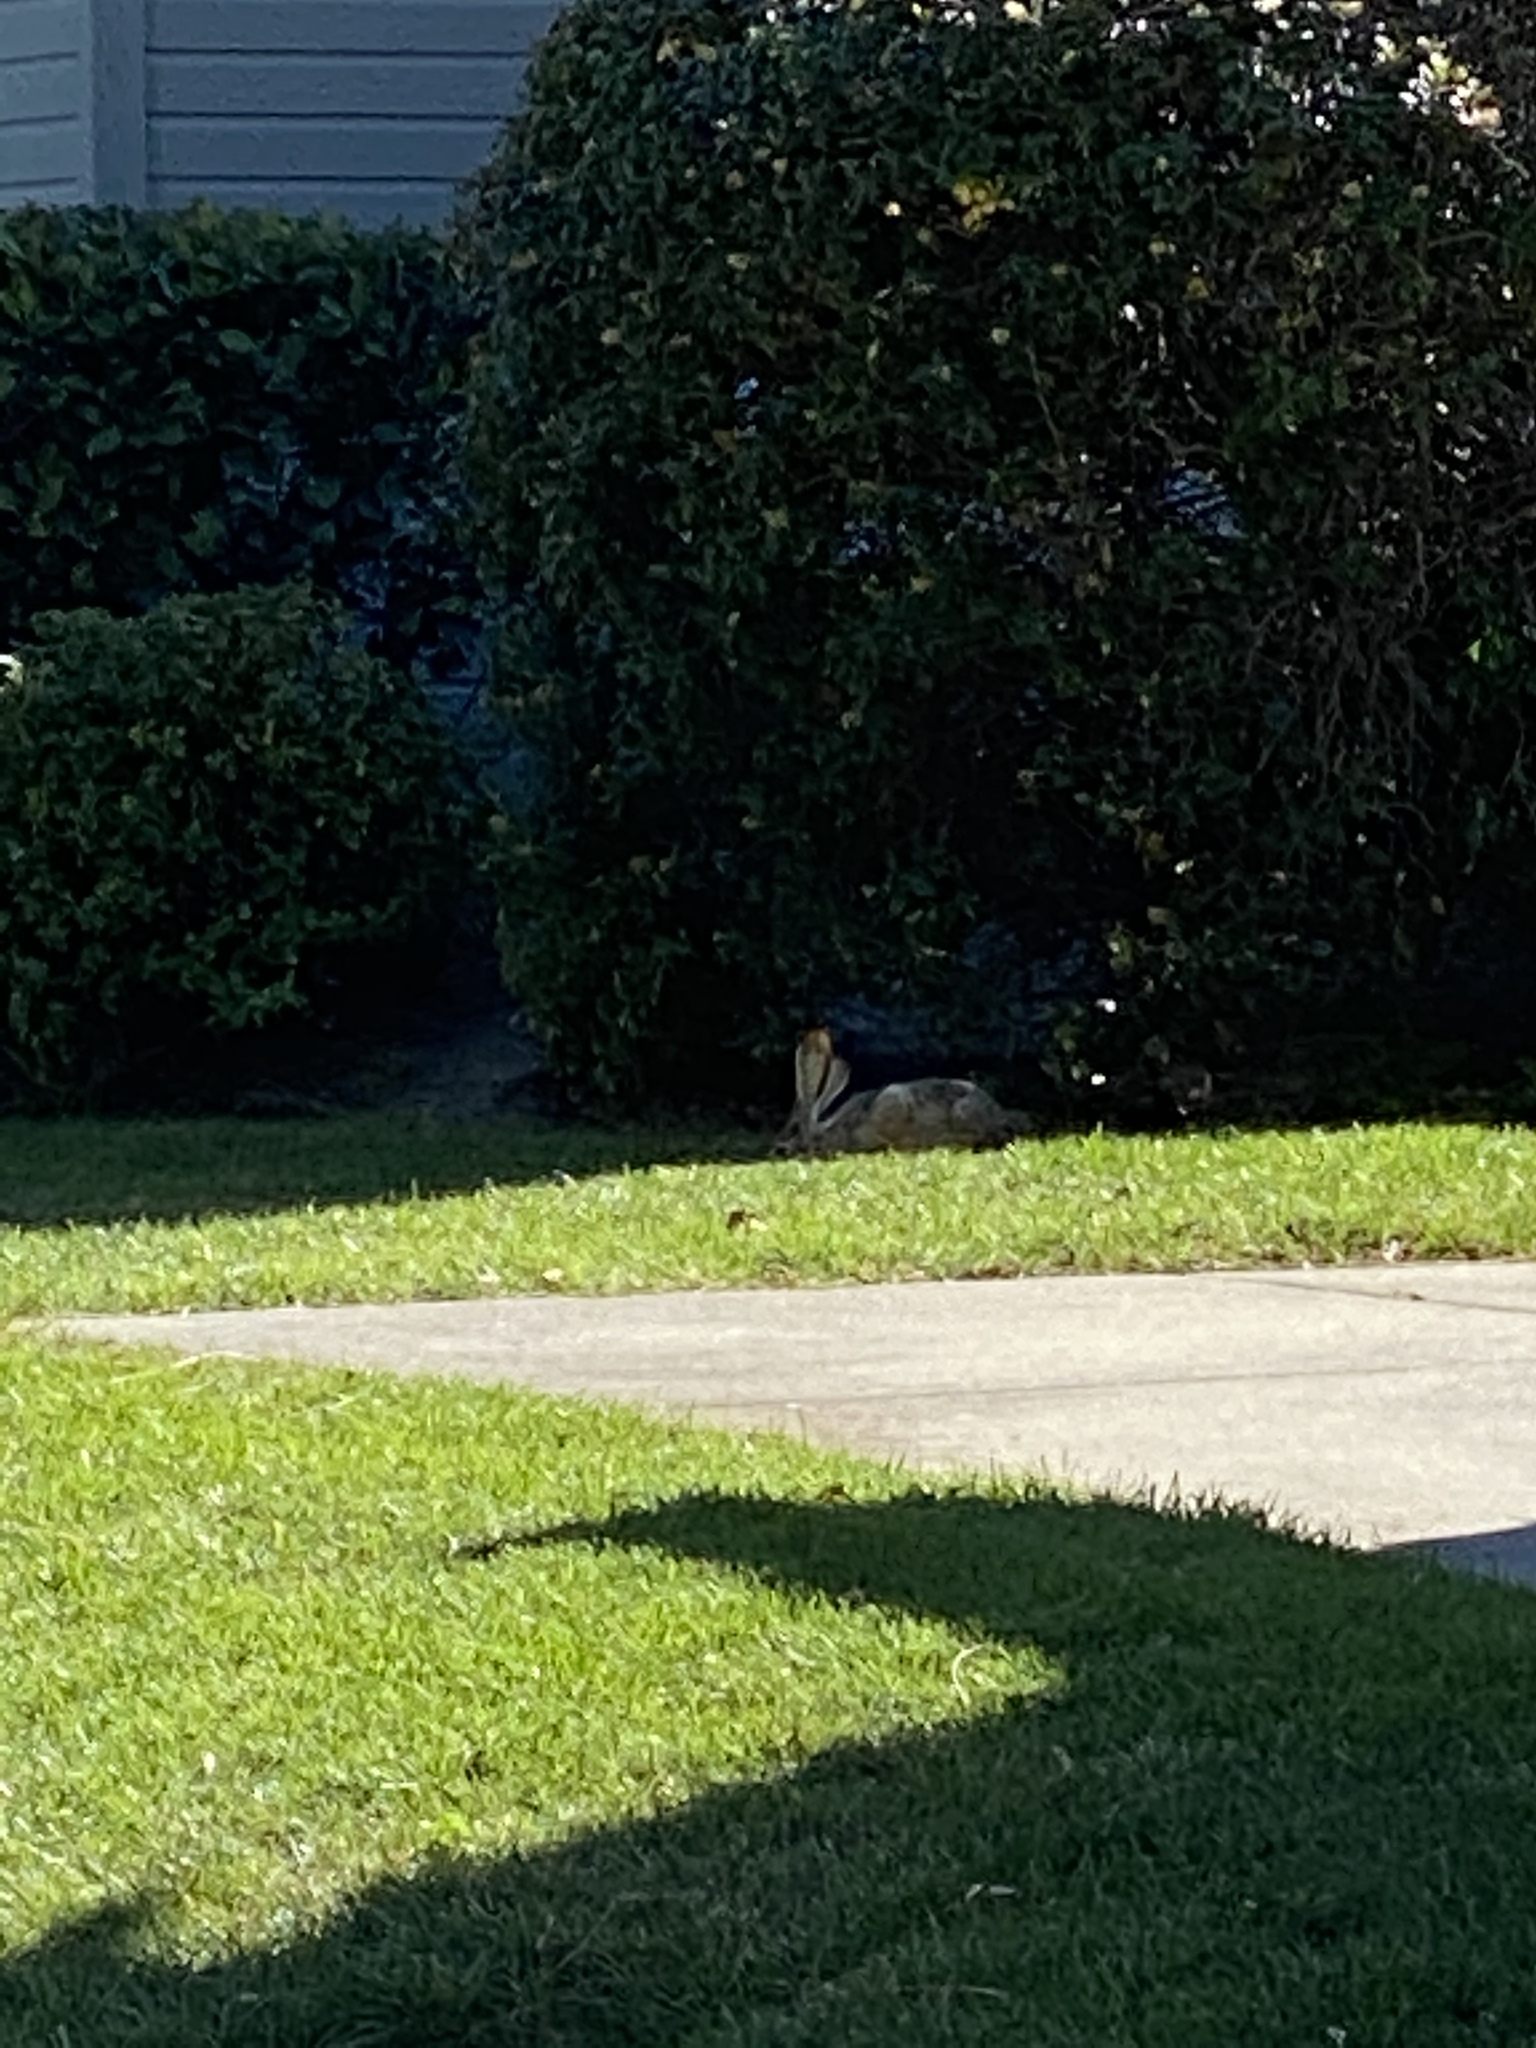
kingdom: Animalia
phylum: Chordata
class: Mammalia
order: Lagomorpha
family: Leporidae
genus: Lepus
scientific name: Lepus californicus
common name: Black-tailed jackrabbit
